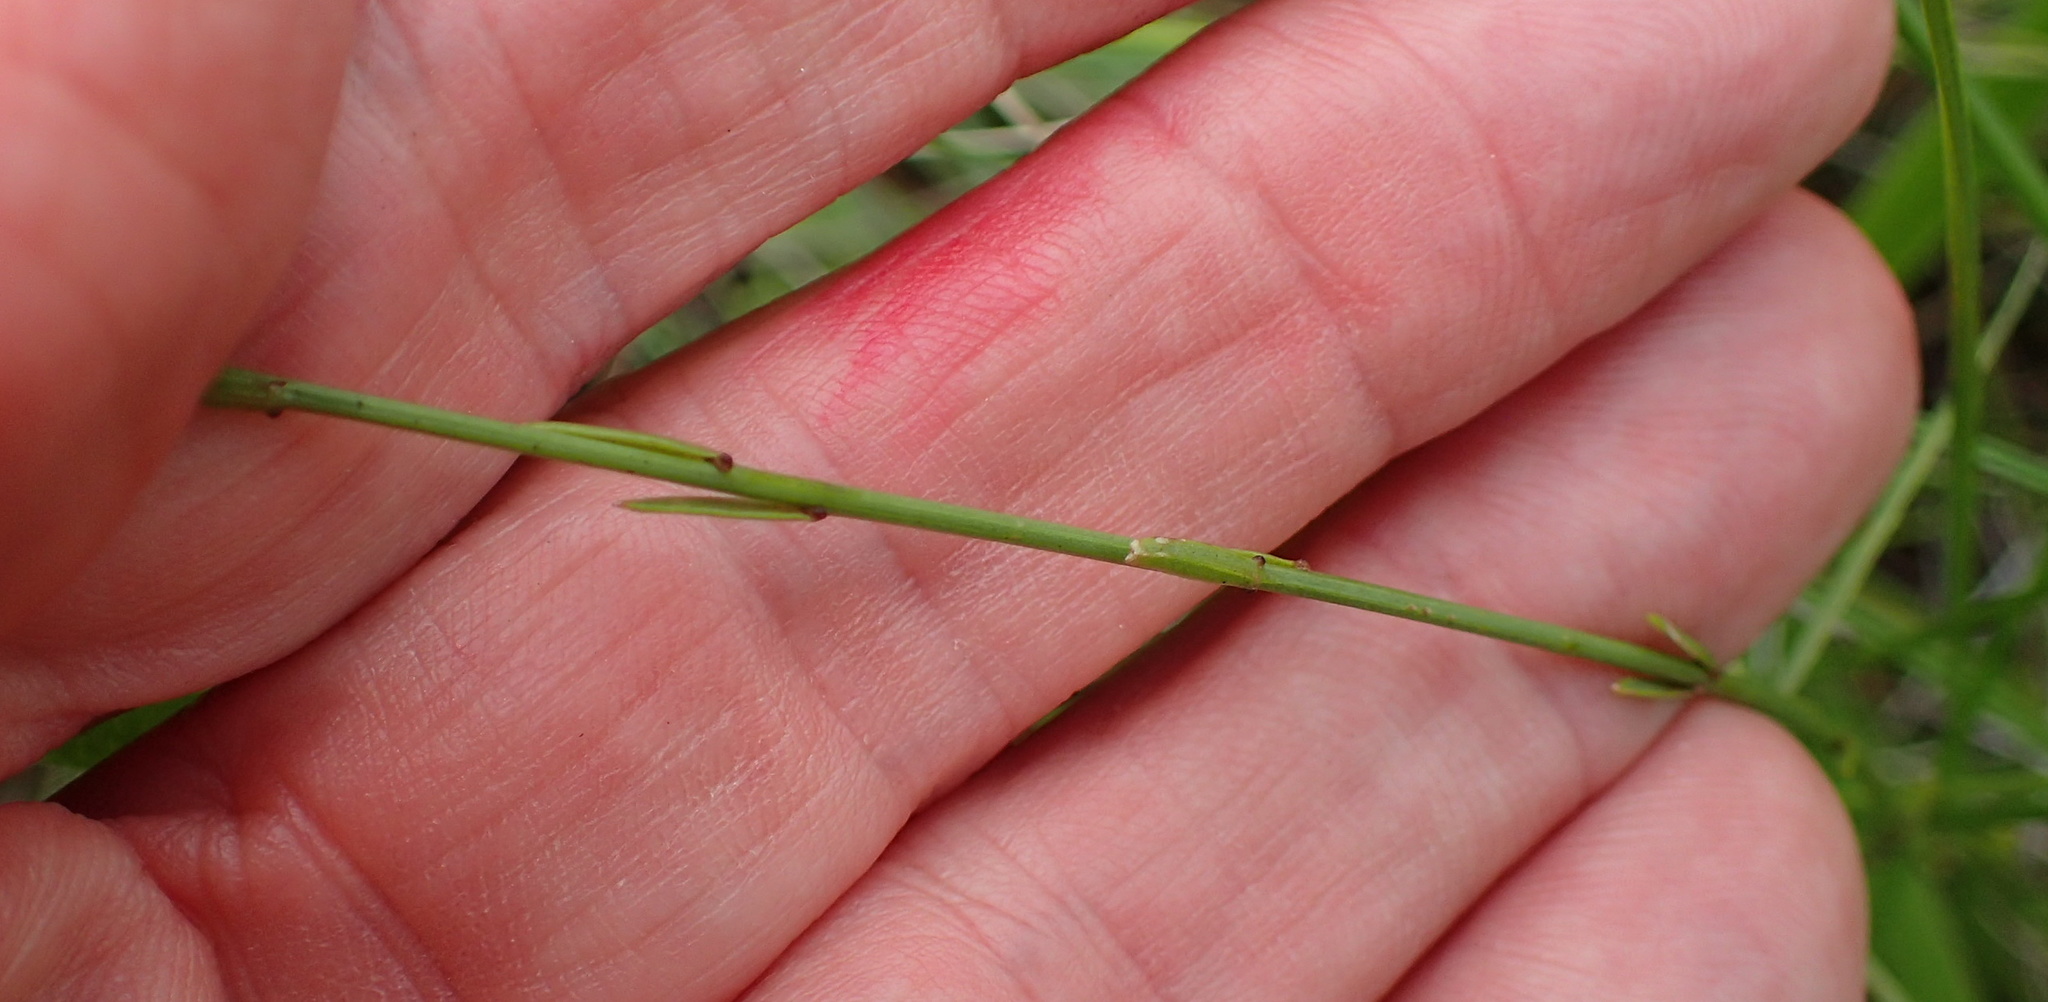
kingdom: Plantae
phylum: Tracheophyta
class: Magnoliopsida
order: Malpighiales
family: Linaceae
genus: Linum
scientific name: Linum thunbergii
